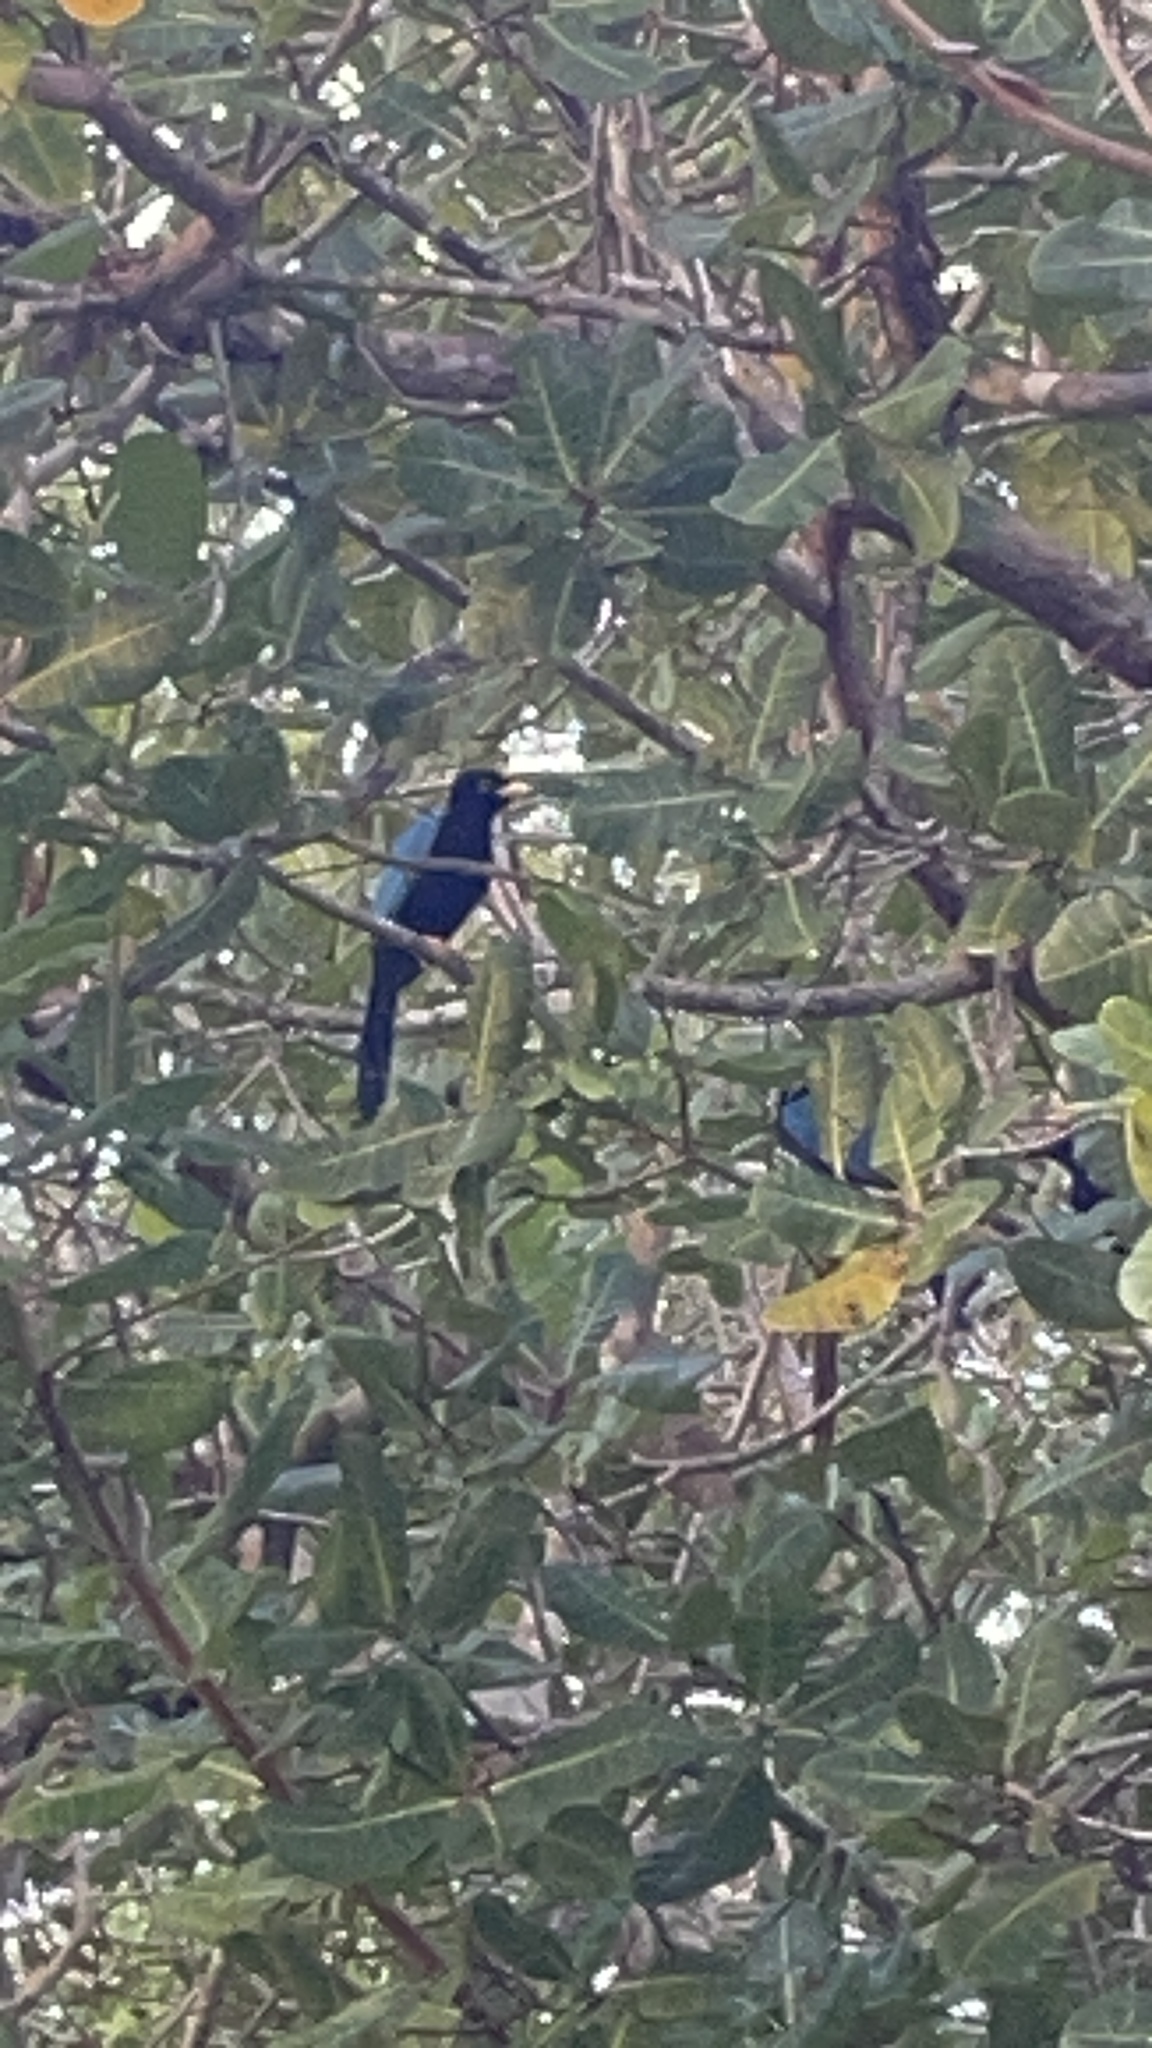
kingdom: Animalia
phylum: Chordata
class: Aves
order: Passeriformes
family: Corvidae
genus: Cyanocorax
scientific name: Cyanocorax yucatanicus
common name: Yucatan jay
